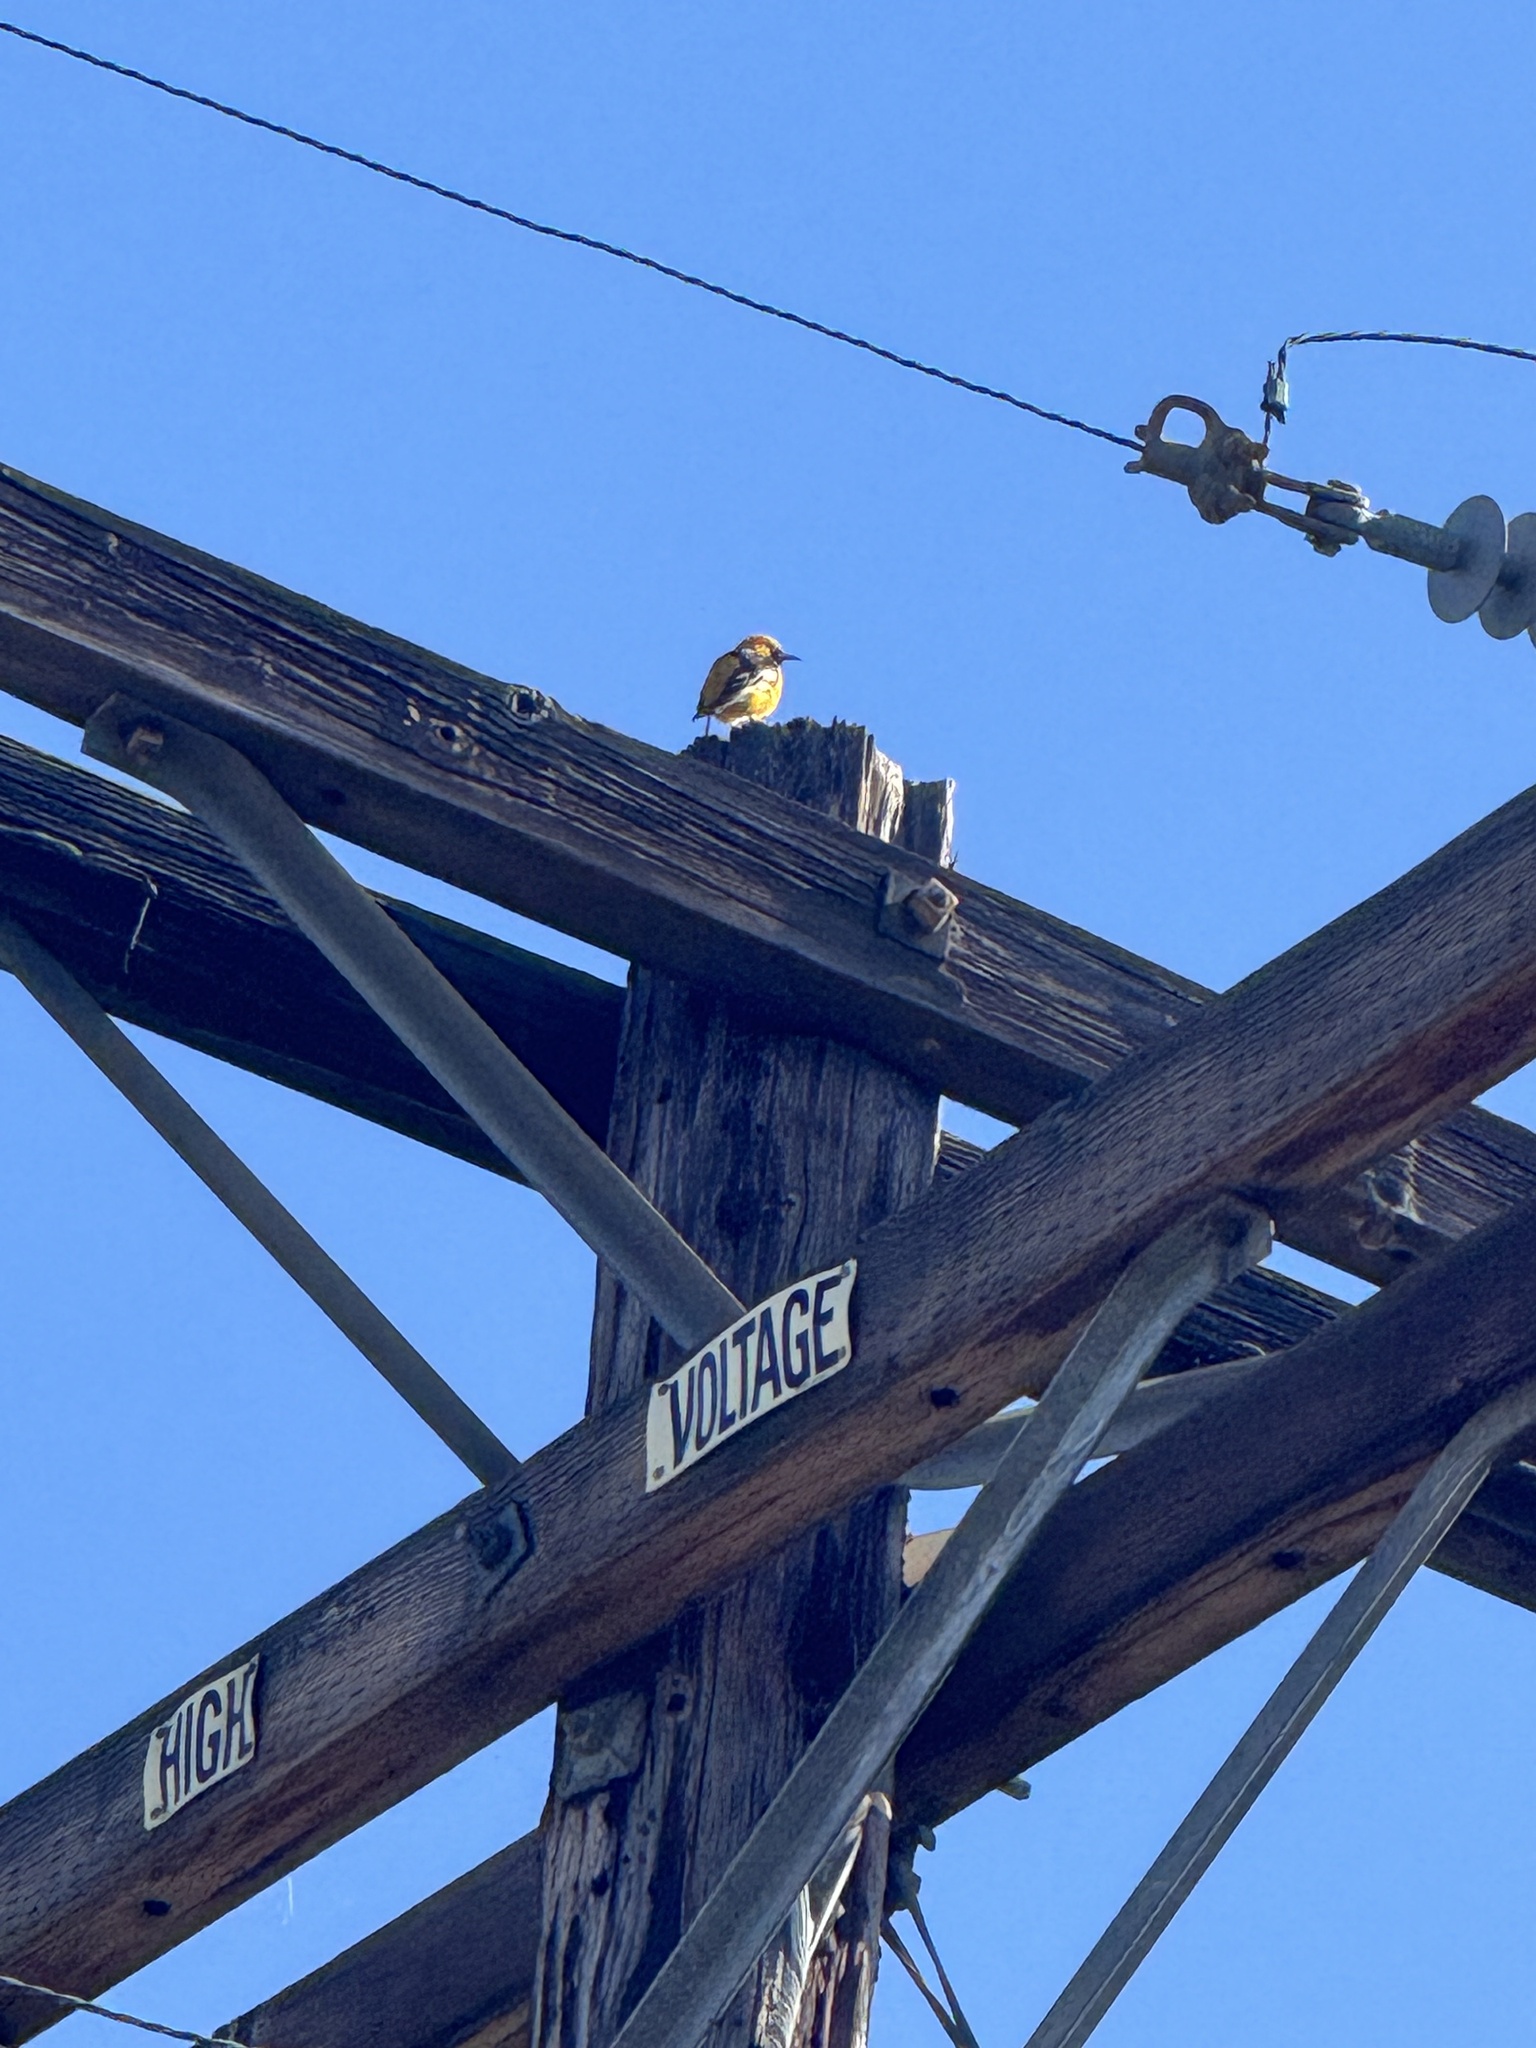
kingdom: Animalia
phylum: Chordata
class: Aves
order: Passeriformes
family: Icteridae
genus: Icterus
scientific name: Icterus cucullatus
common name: Hooded oriole
